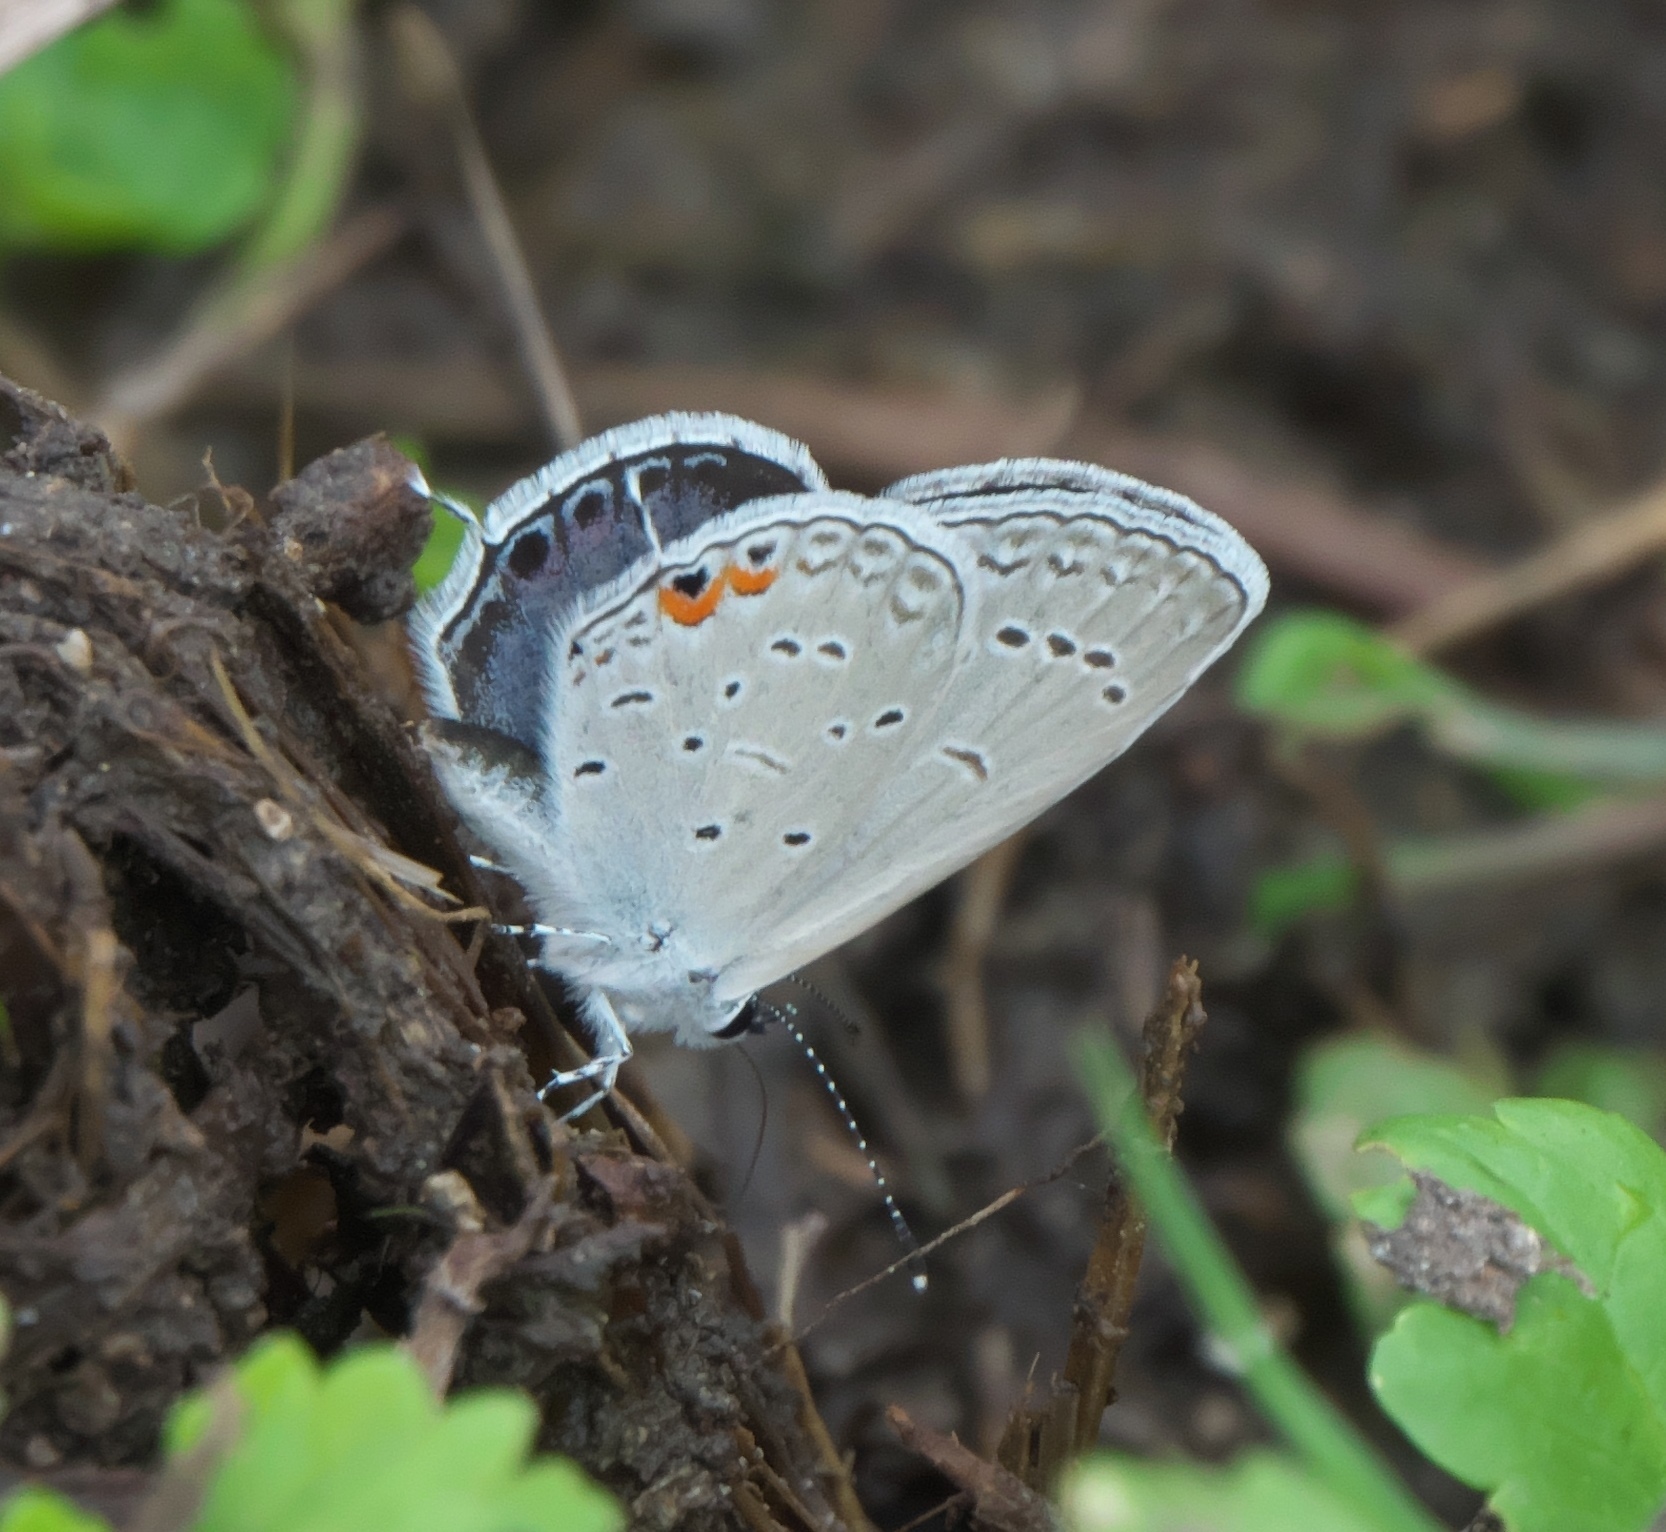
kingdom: Animalia
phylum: Arthropoda
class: Insecta
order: Lepidoptera
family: Lycaenidae
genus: Elkalyce
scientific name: Elkalyce comyntas
